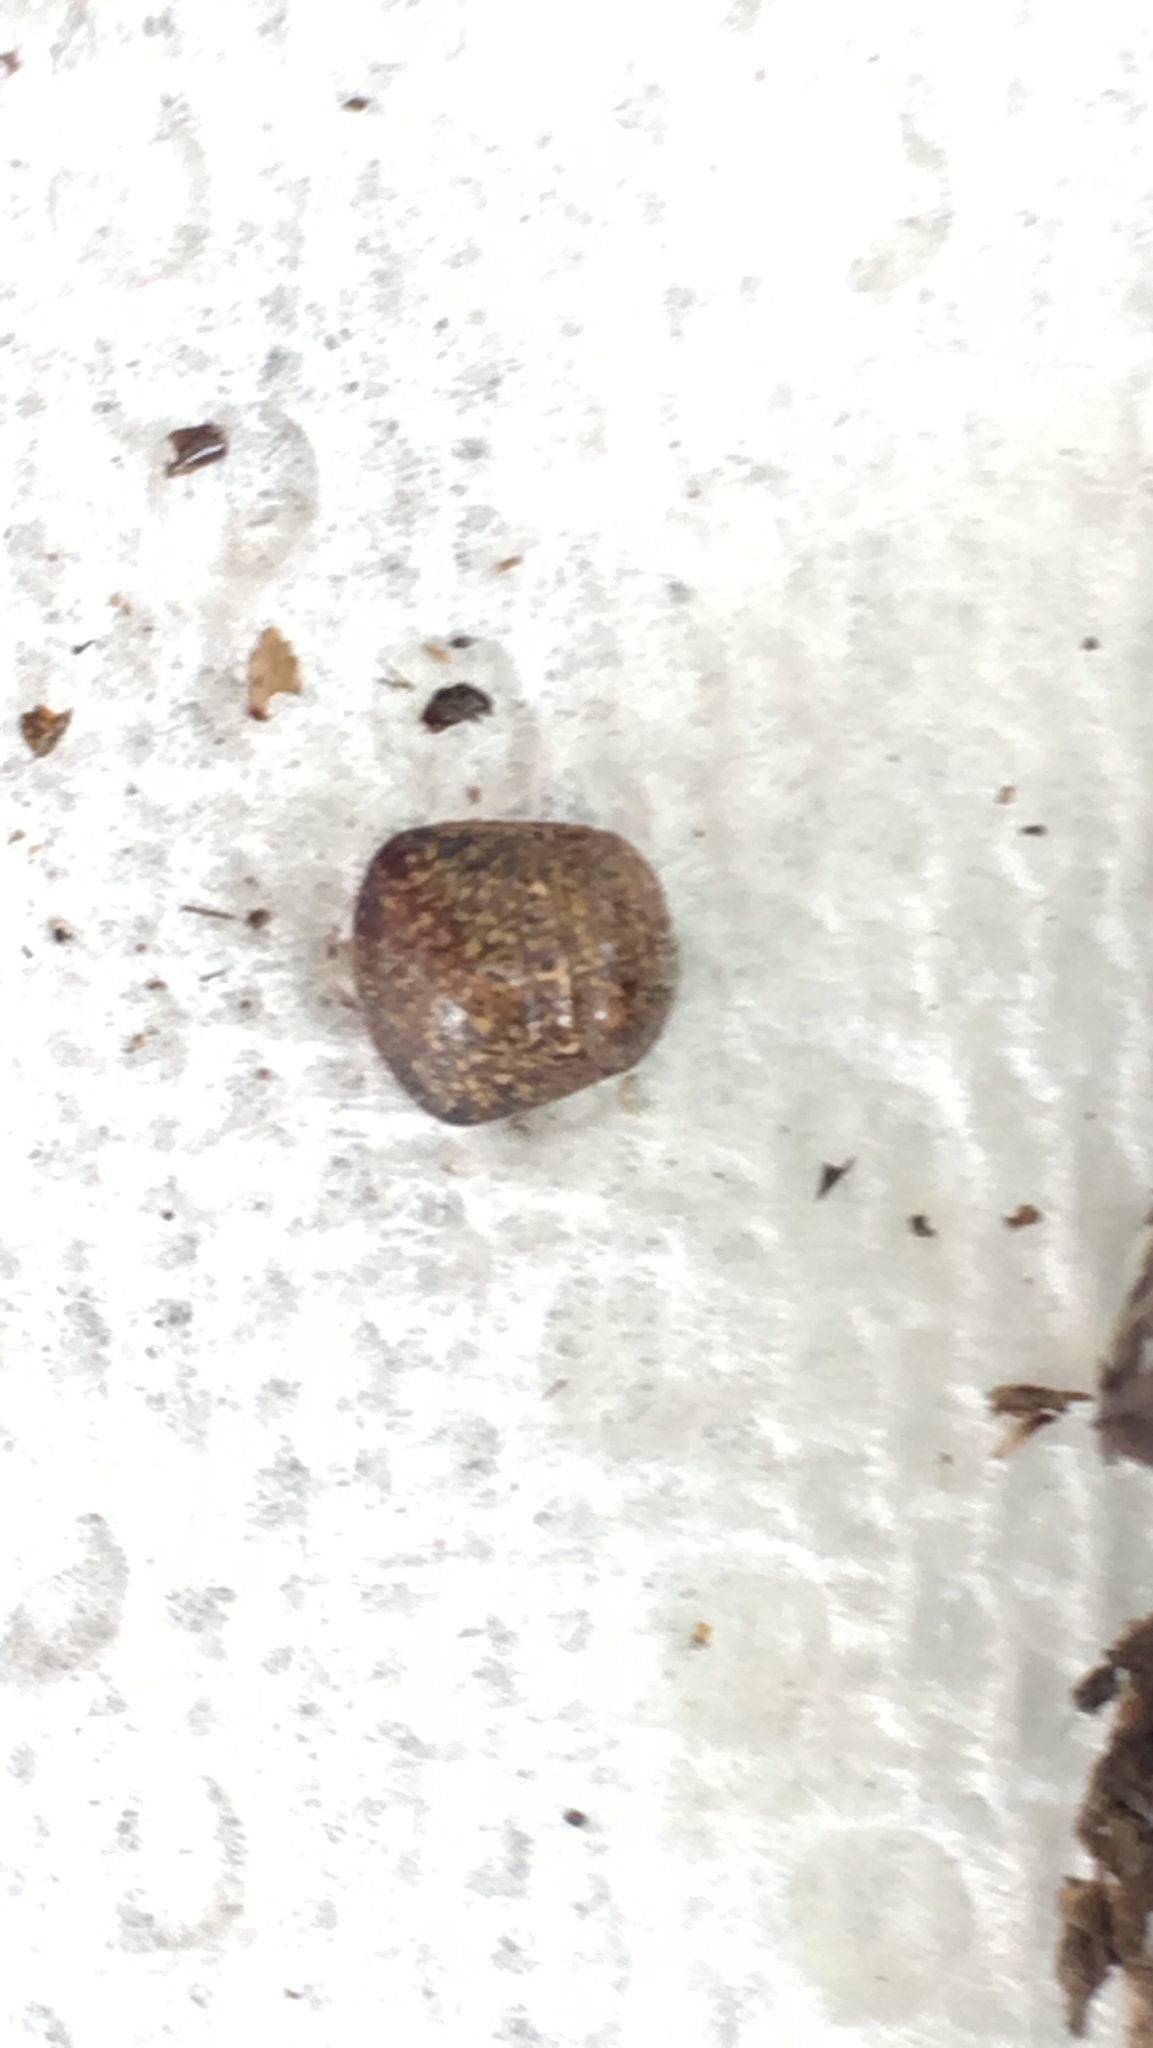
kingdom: Animalia
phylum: Arthropoda
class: Insecta
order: Hemiptera
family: Plataspidae
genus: Megacopta
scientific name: Megacopta cribraria
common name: Bean plataspid
